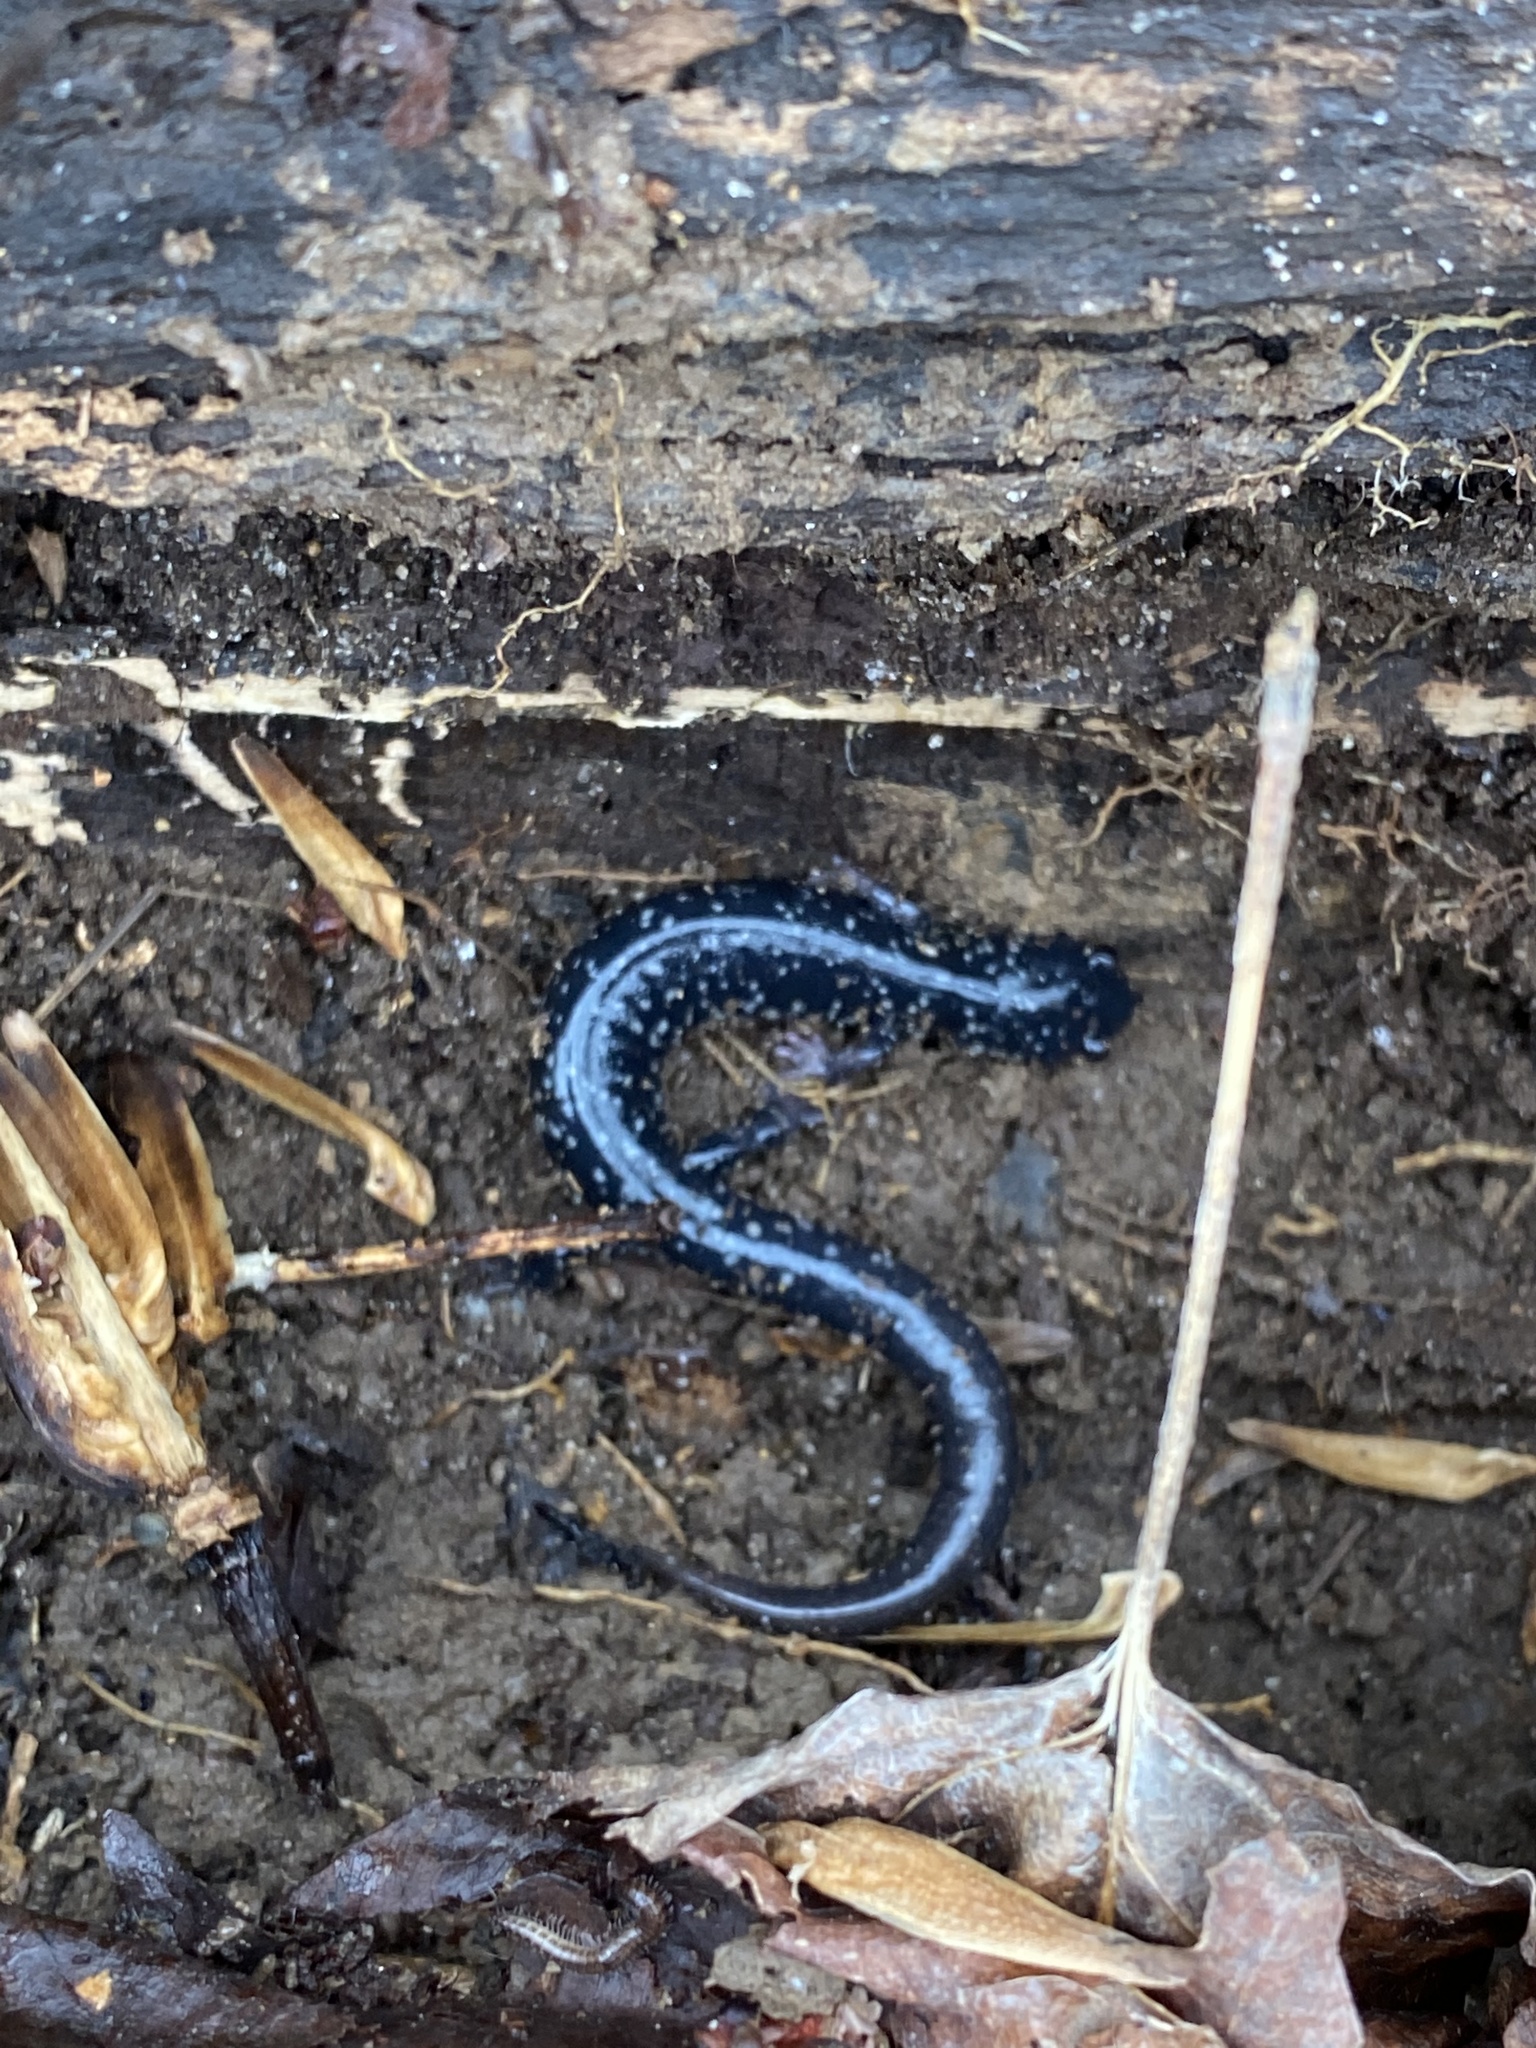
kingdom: Animalia
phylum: Chordata
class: Amphibia
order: Caudata
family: Plethodontidae
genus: Plethodon
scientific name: Plethodon cylindraceus
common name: White-spotted slimy salamander
